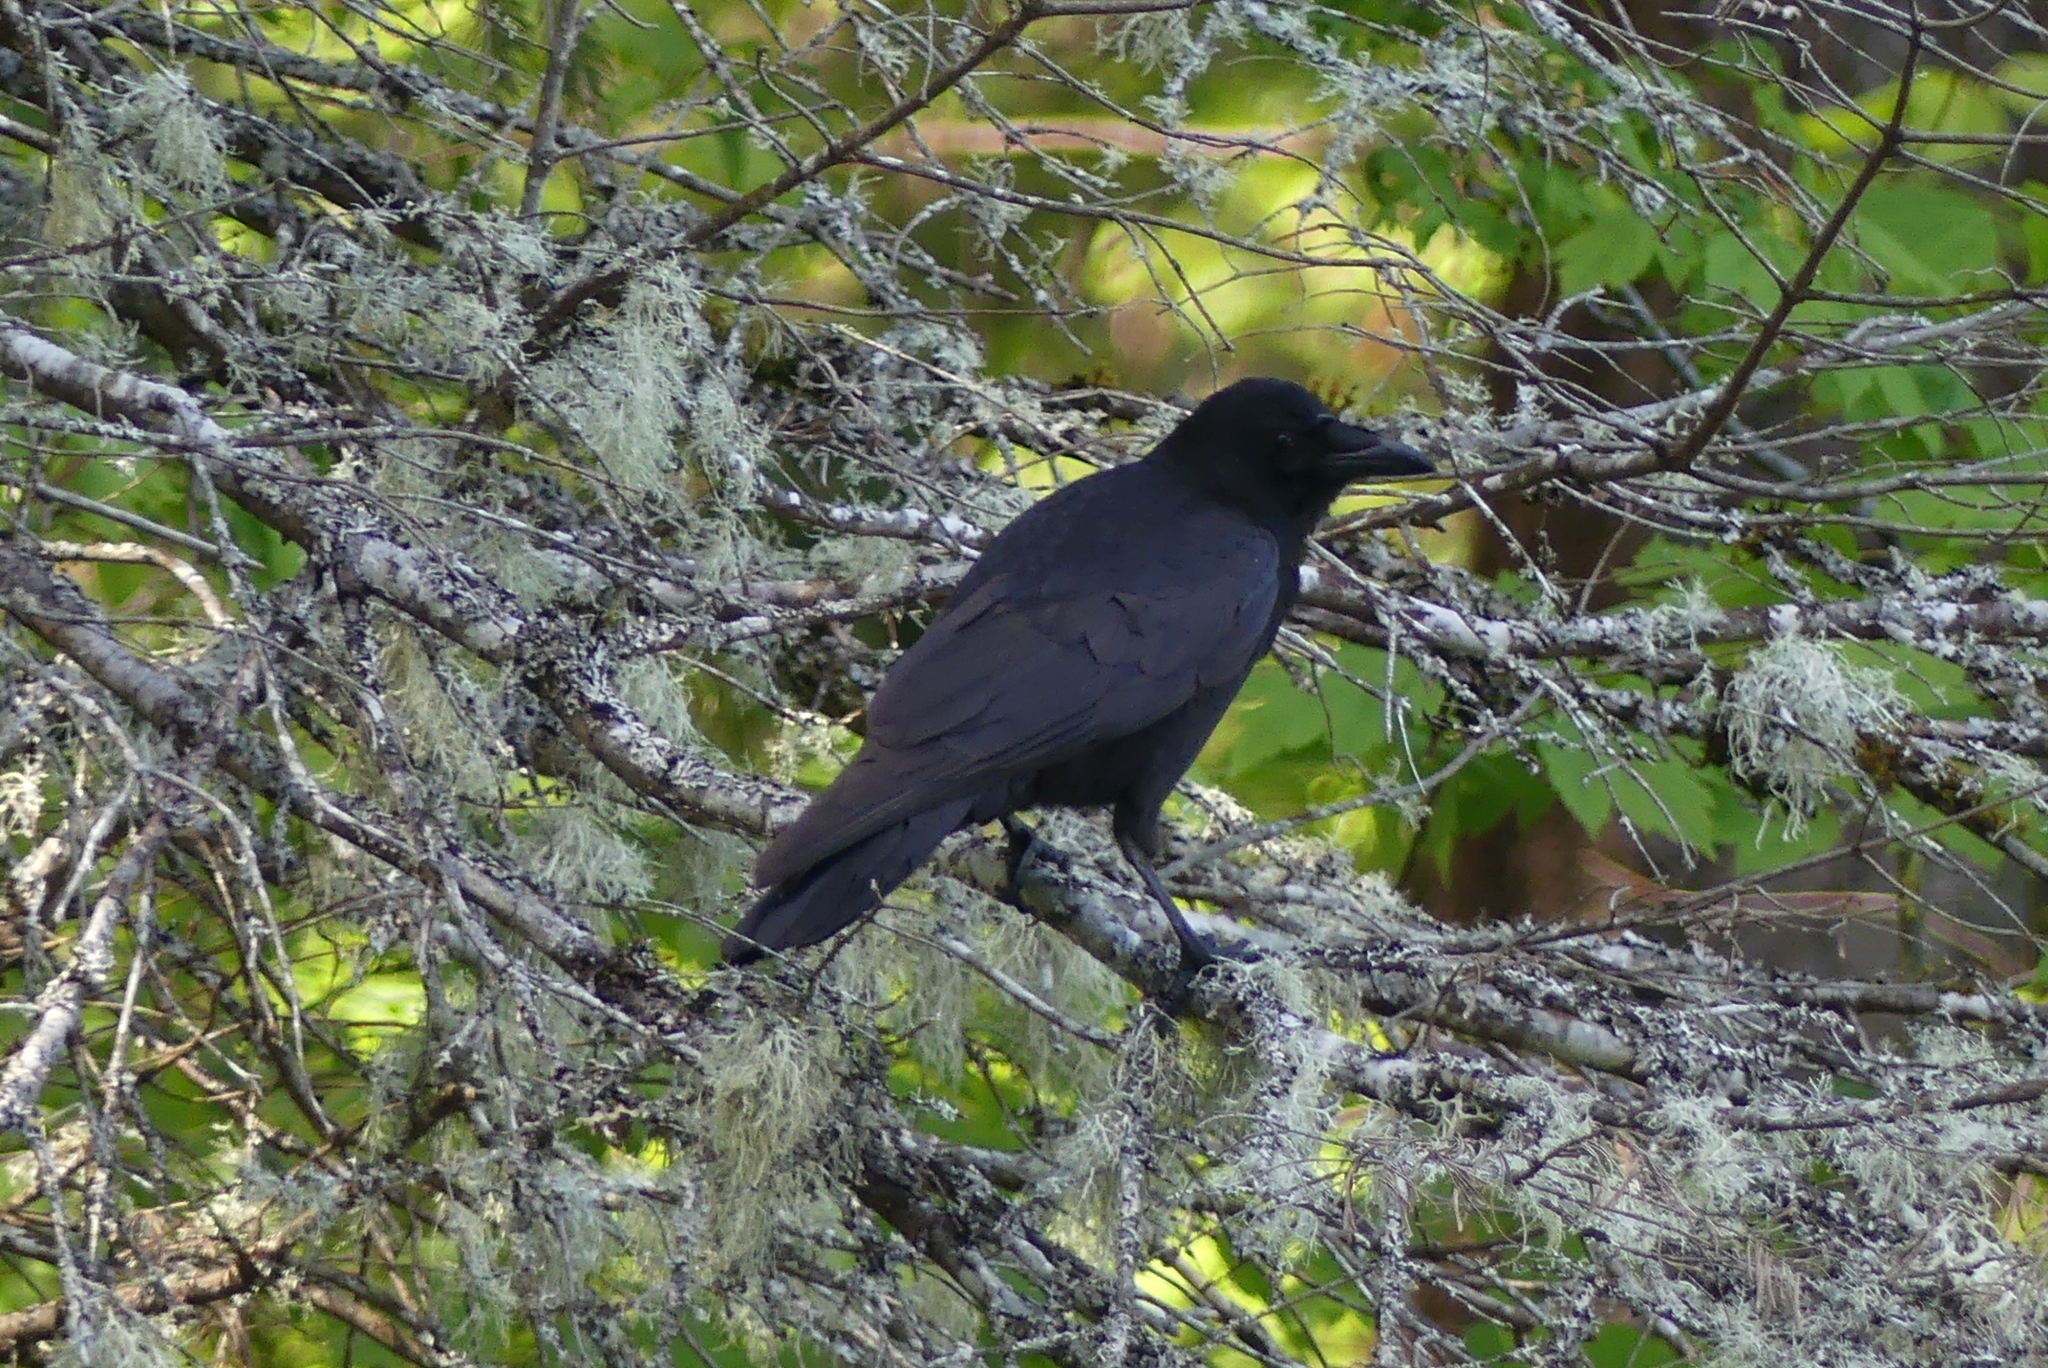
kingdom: Animalia
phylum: Chordata
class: Aves
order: Passeriformes
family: Corvidae
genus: Corvus
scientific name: Corvus brachyrhynchos
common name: American crow
